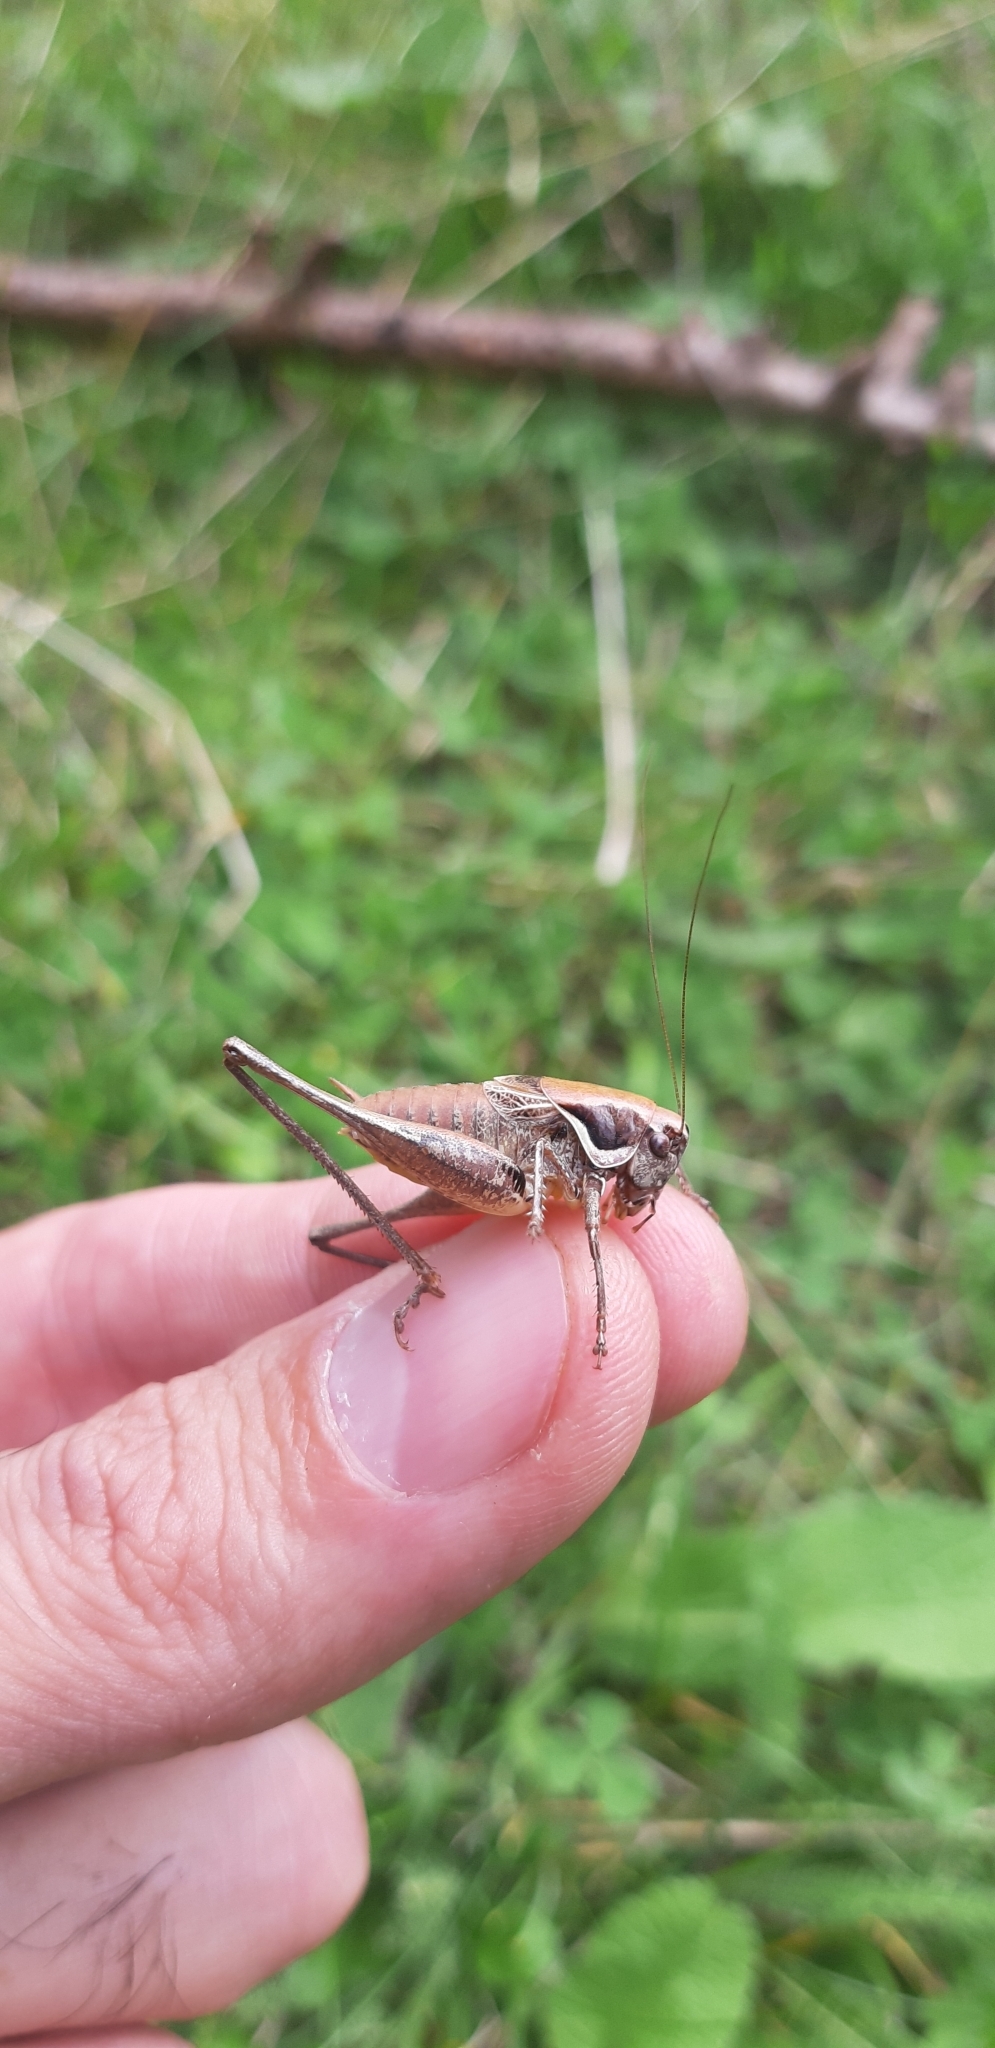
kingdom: Animalia
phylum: Arthropoda
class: Insecta
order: Orthoptera
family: Tettigoniidae
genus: Pholidoptera
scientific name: Pholidoptera fallax
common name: Fischer's bush-cricket
